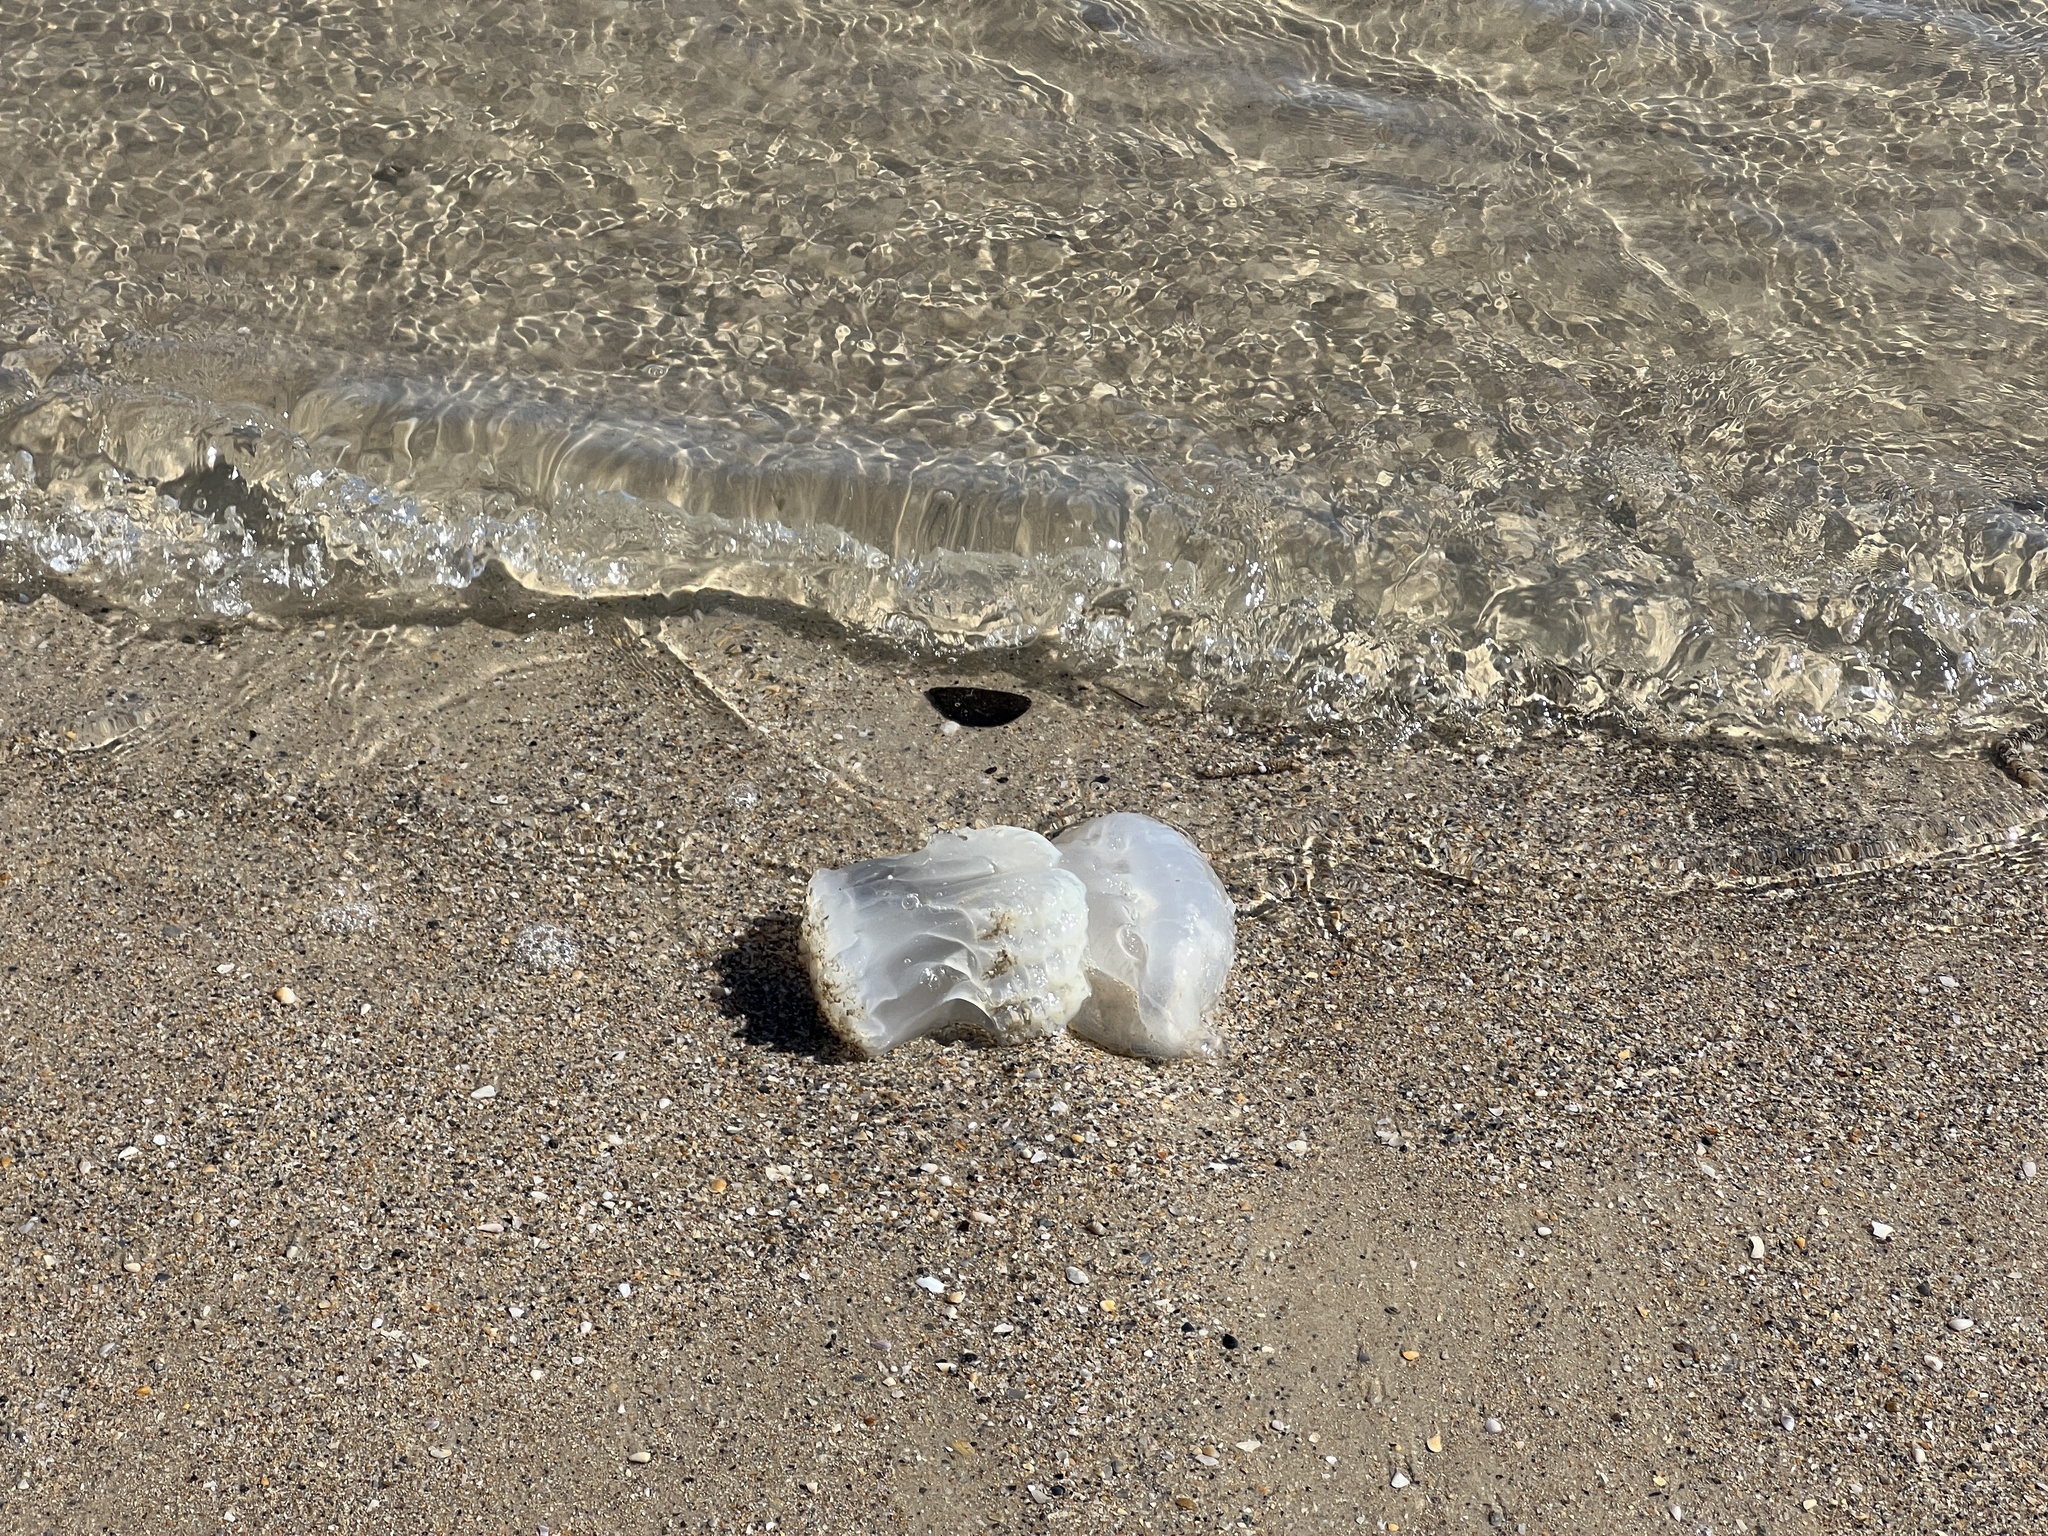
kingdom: Animalia
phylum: Cnidaria
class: Scyphozoa
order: Rhizostomeae
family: Stomolophidae
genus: Stomolophus
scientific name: Stomolophus meleagris
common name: Cabbagehead
